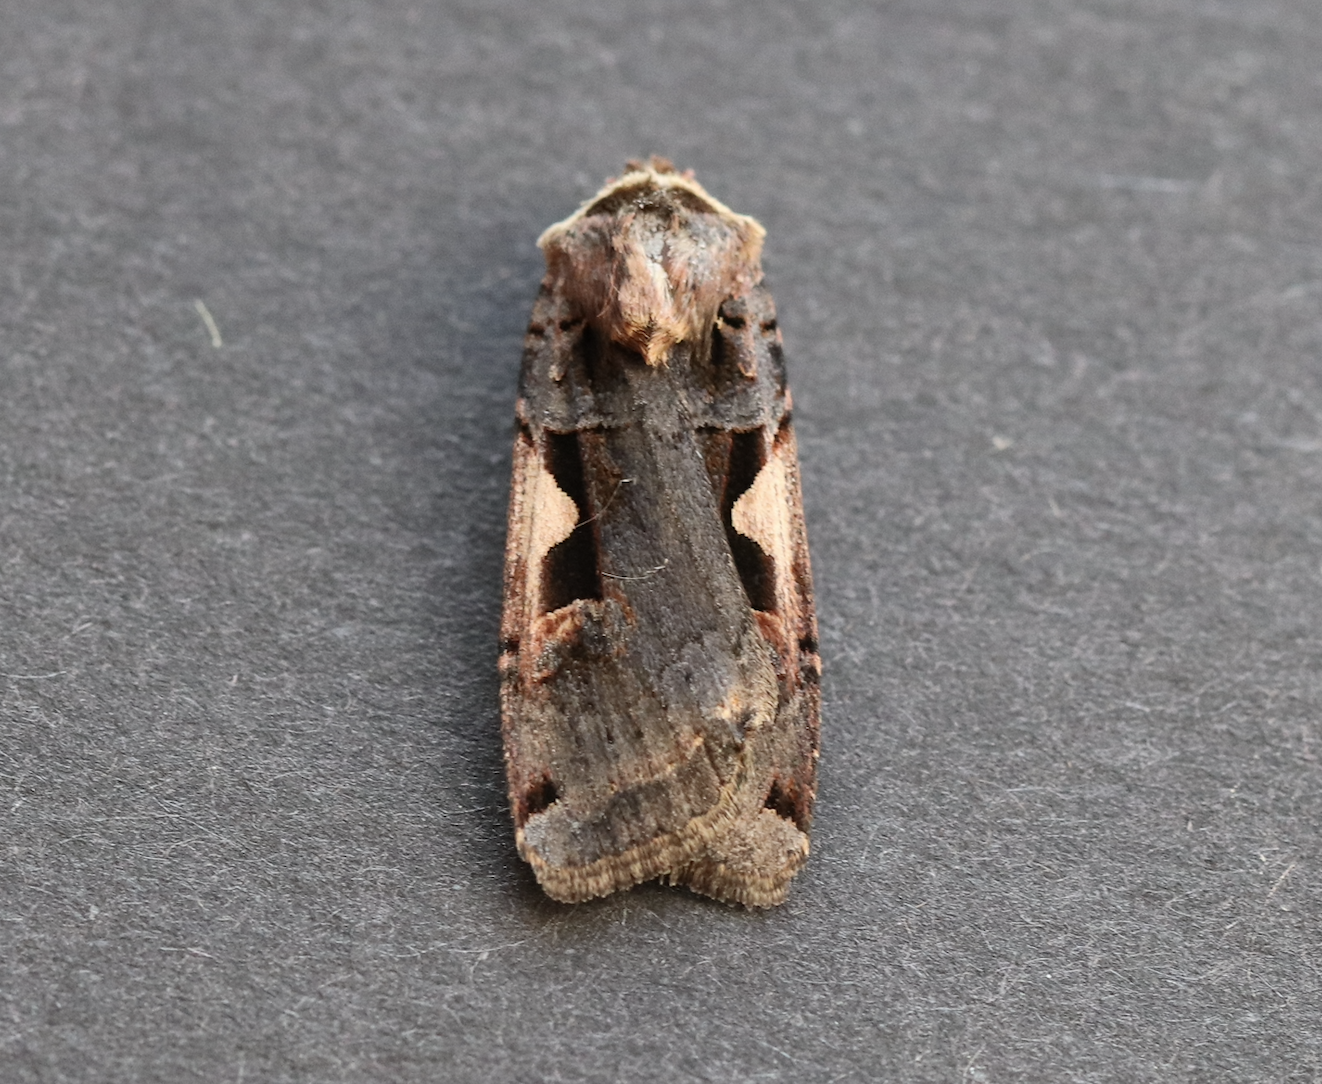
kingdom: Animalia
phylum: Arthropoda
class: Insecta
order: Lepidoptera
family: Noctuidae
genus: Xestia
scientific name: Xestia c-nigrum
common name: Setaceous hebrew character
